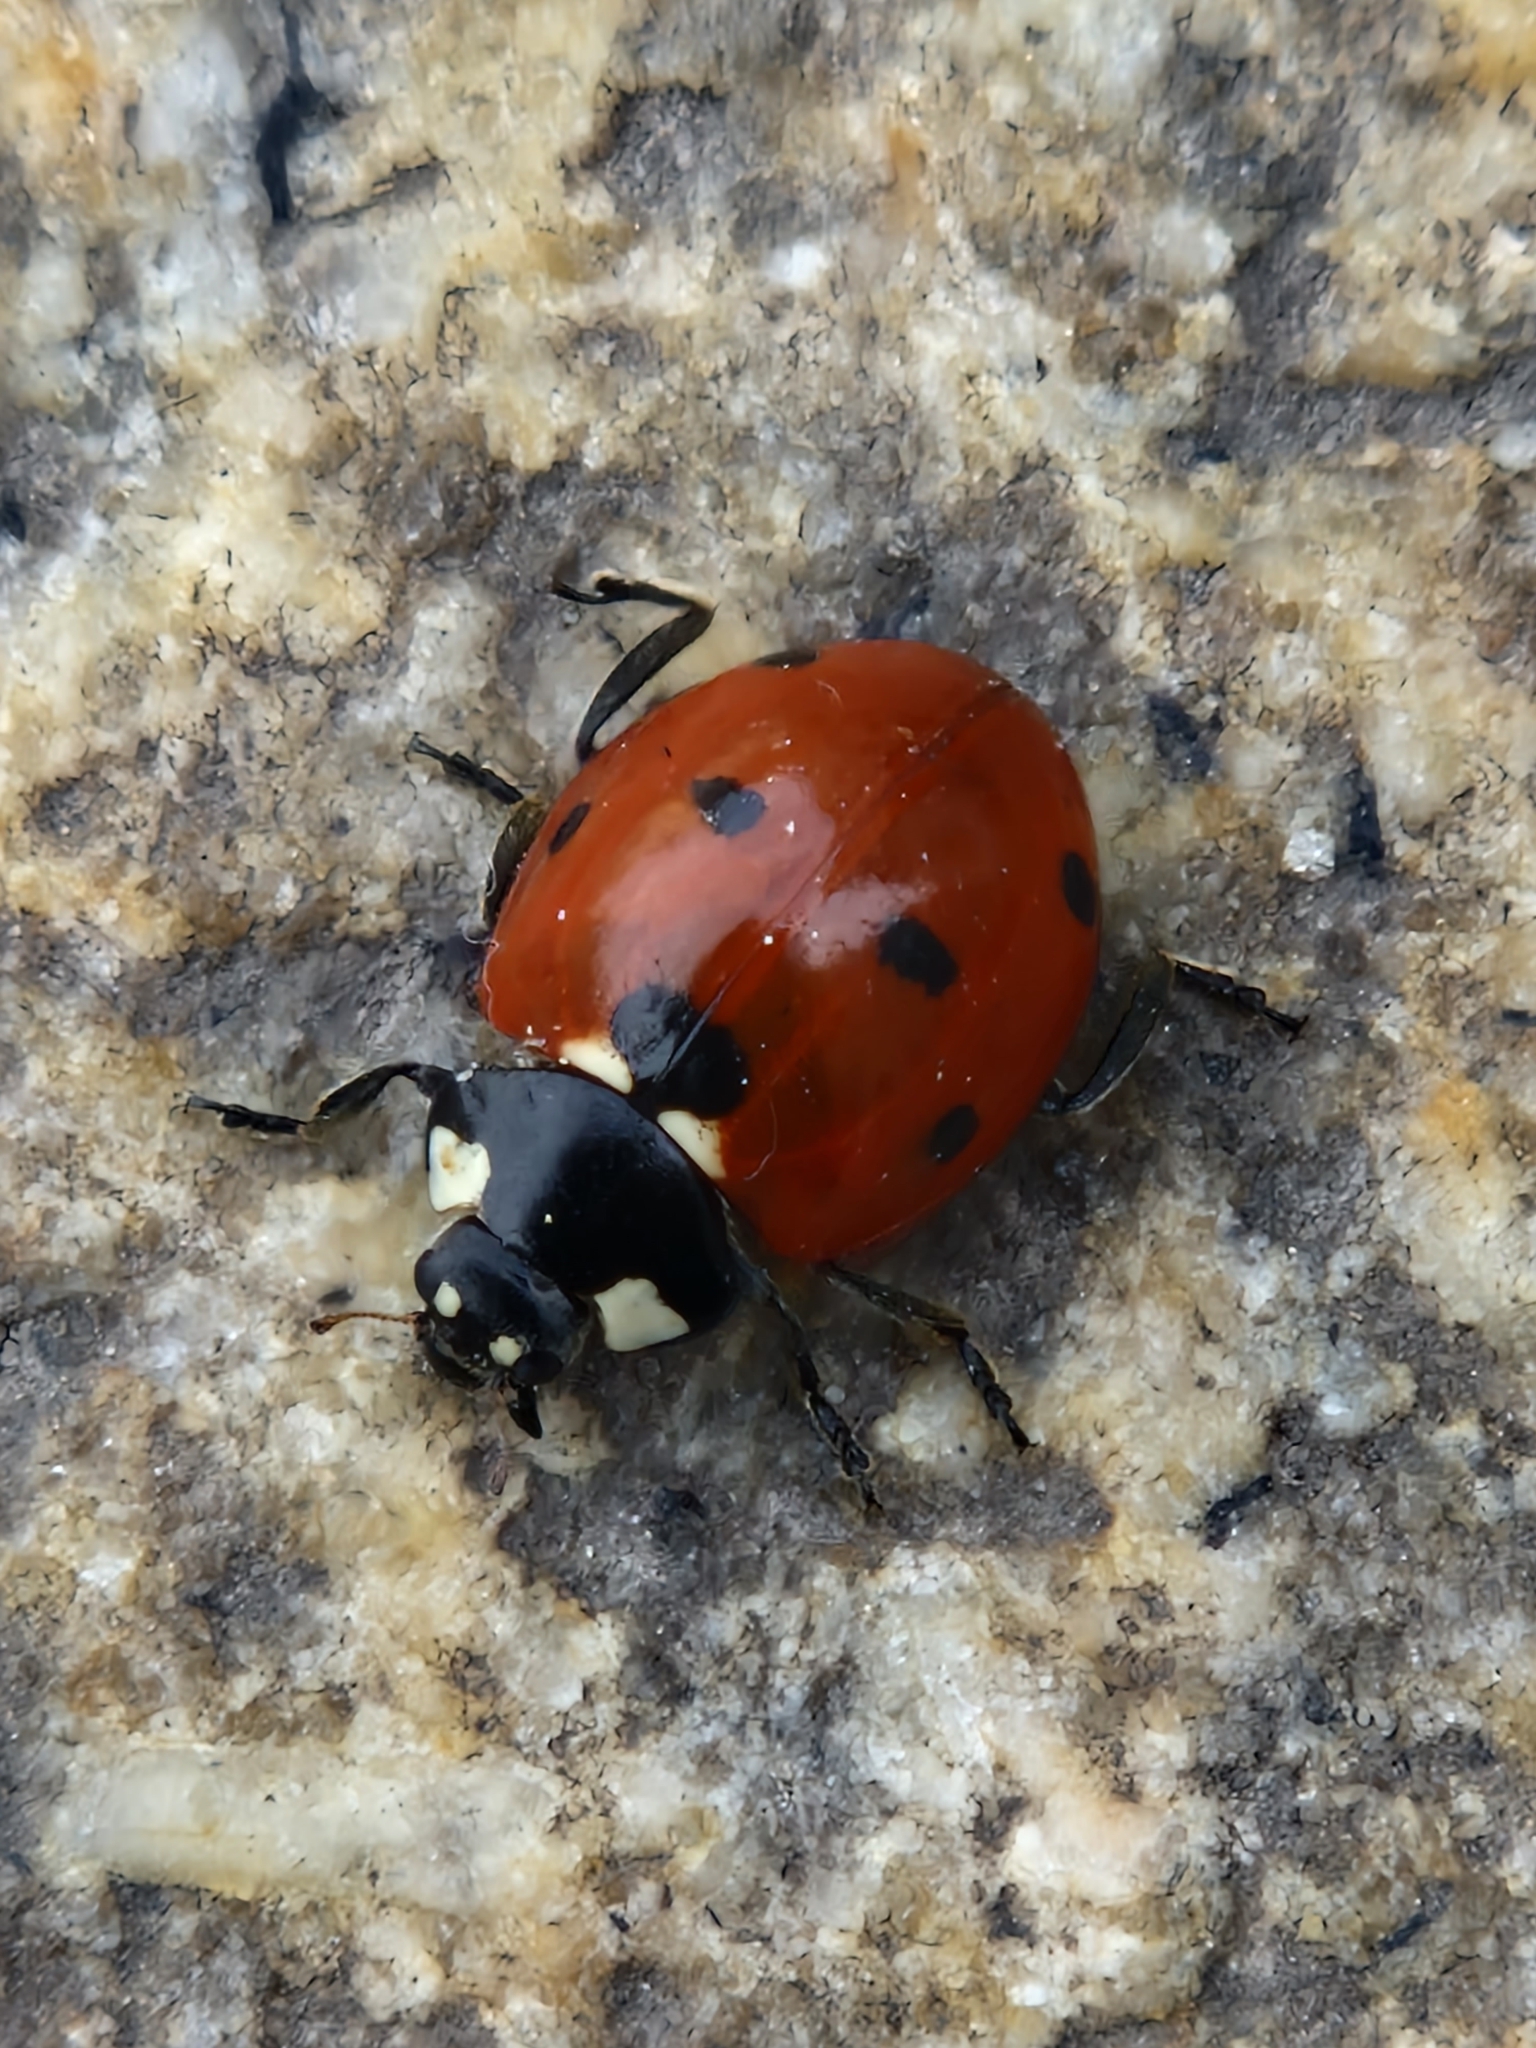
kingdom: Animalia
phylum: Arthropoda
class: Insecta
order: Coleoptera
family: Coccinellidae
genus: Coccinella
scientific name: Coccinella septempunctata
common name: Sevenspotted lady beetle
